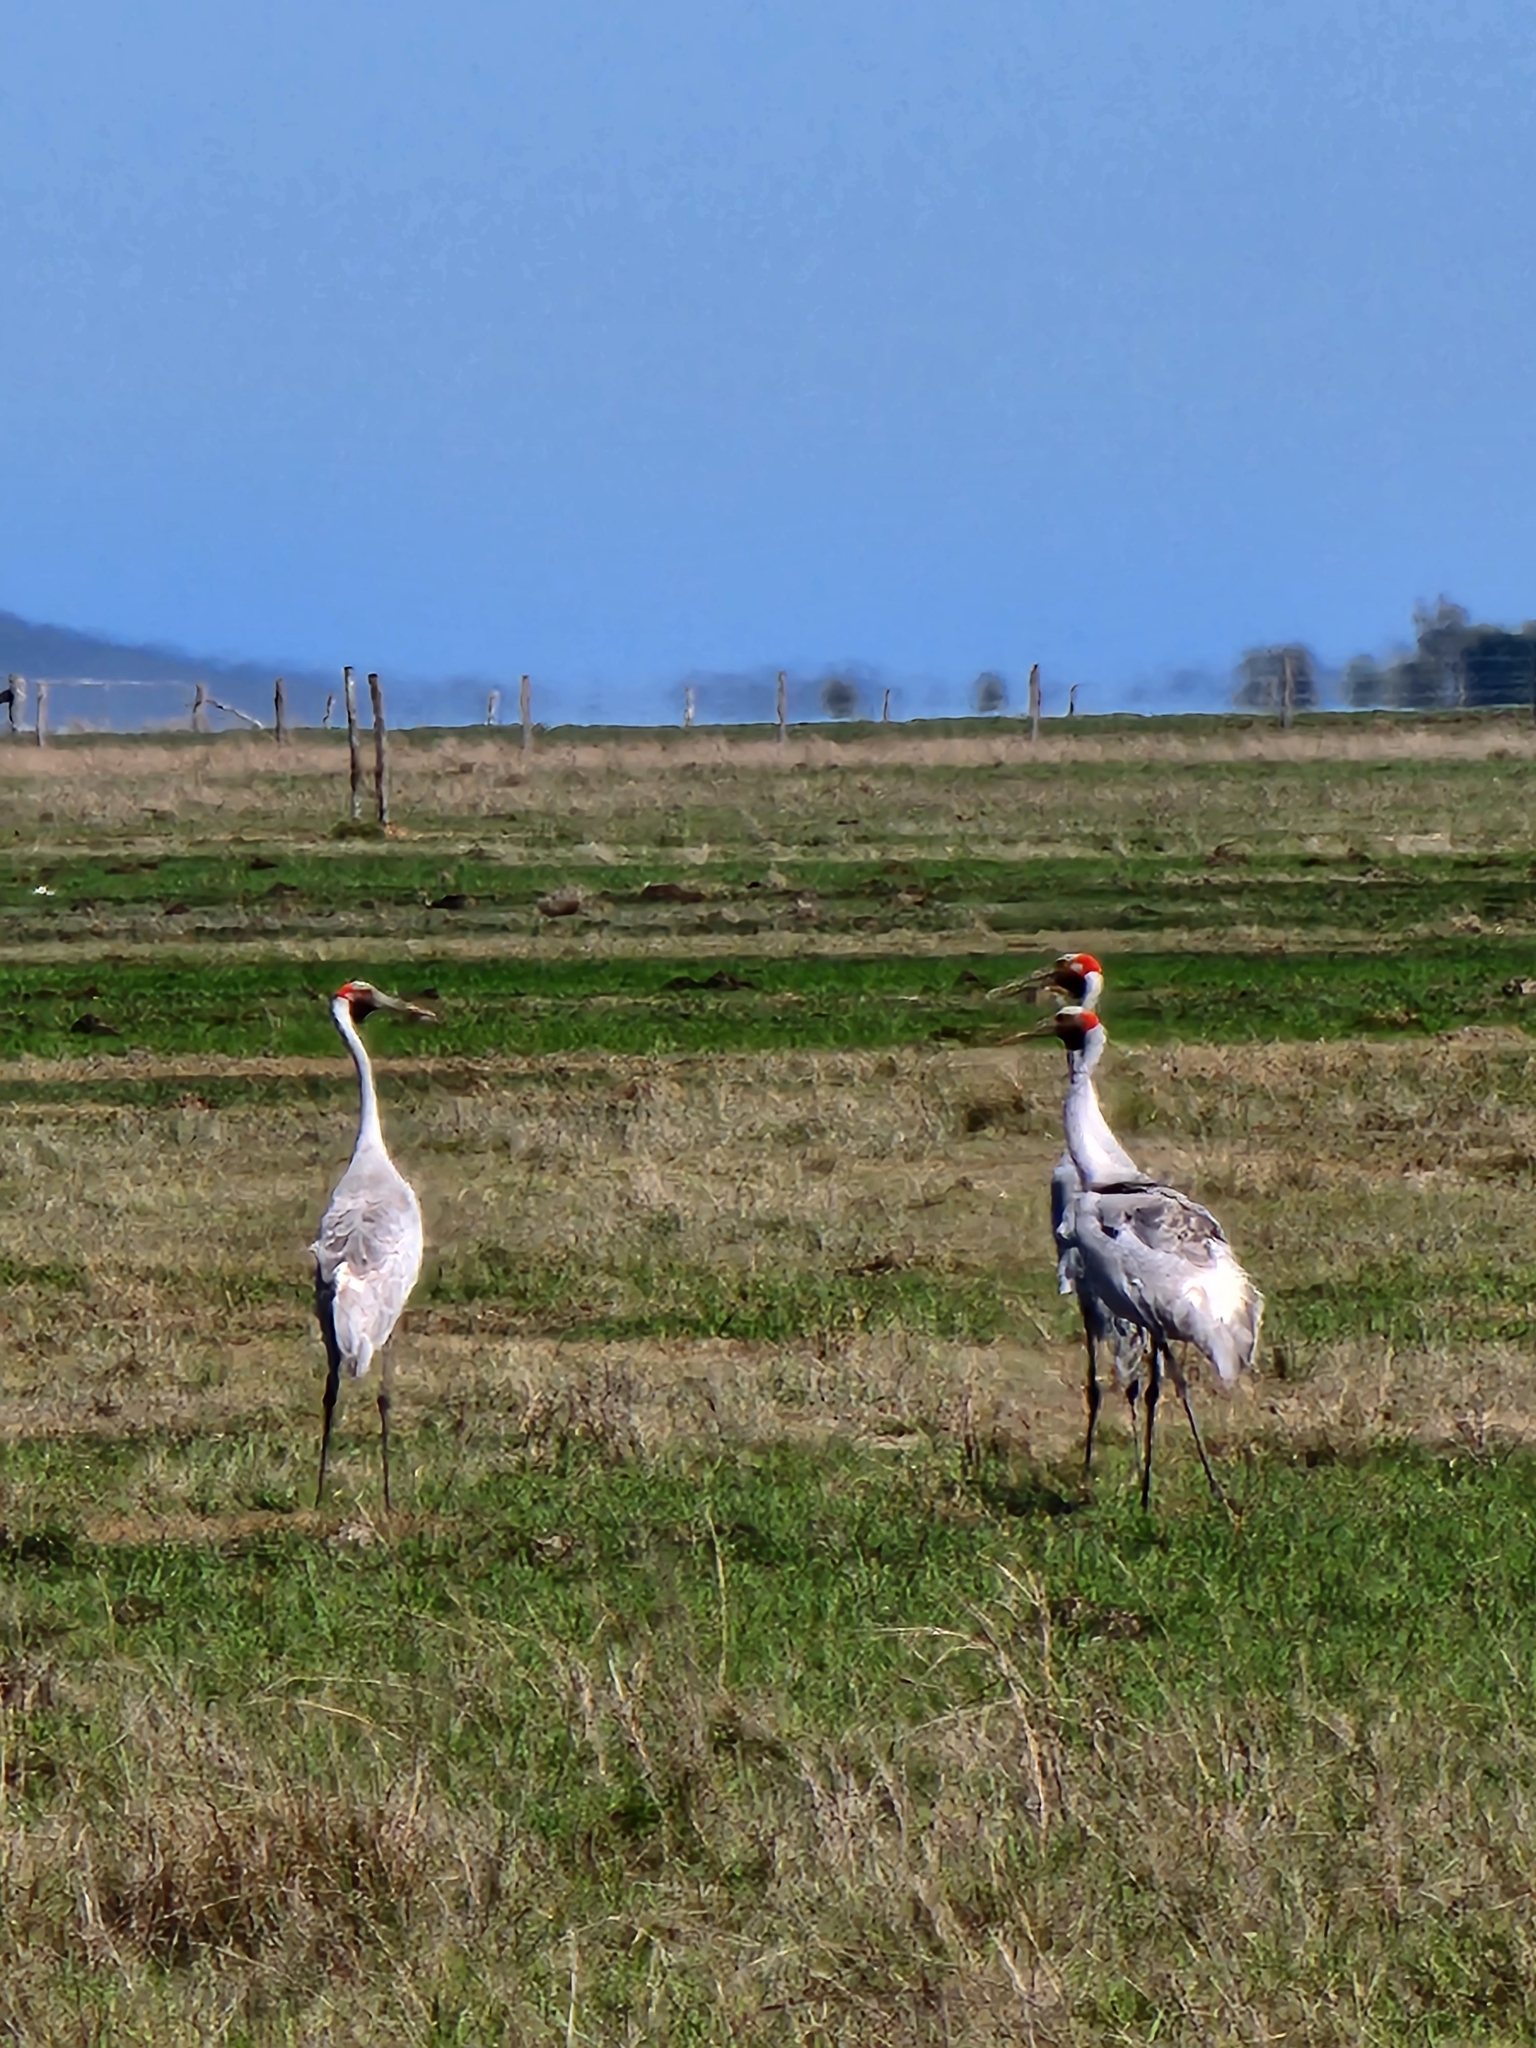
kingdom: Animalia
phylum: Chordata
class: Aves
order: Gruiformes
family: Gruidae
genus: Grus
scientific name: Grus rubicunda
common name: Brolga
